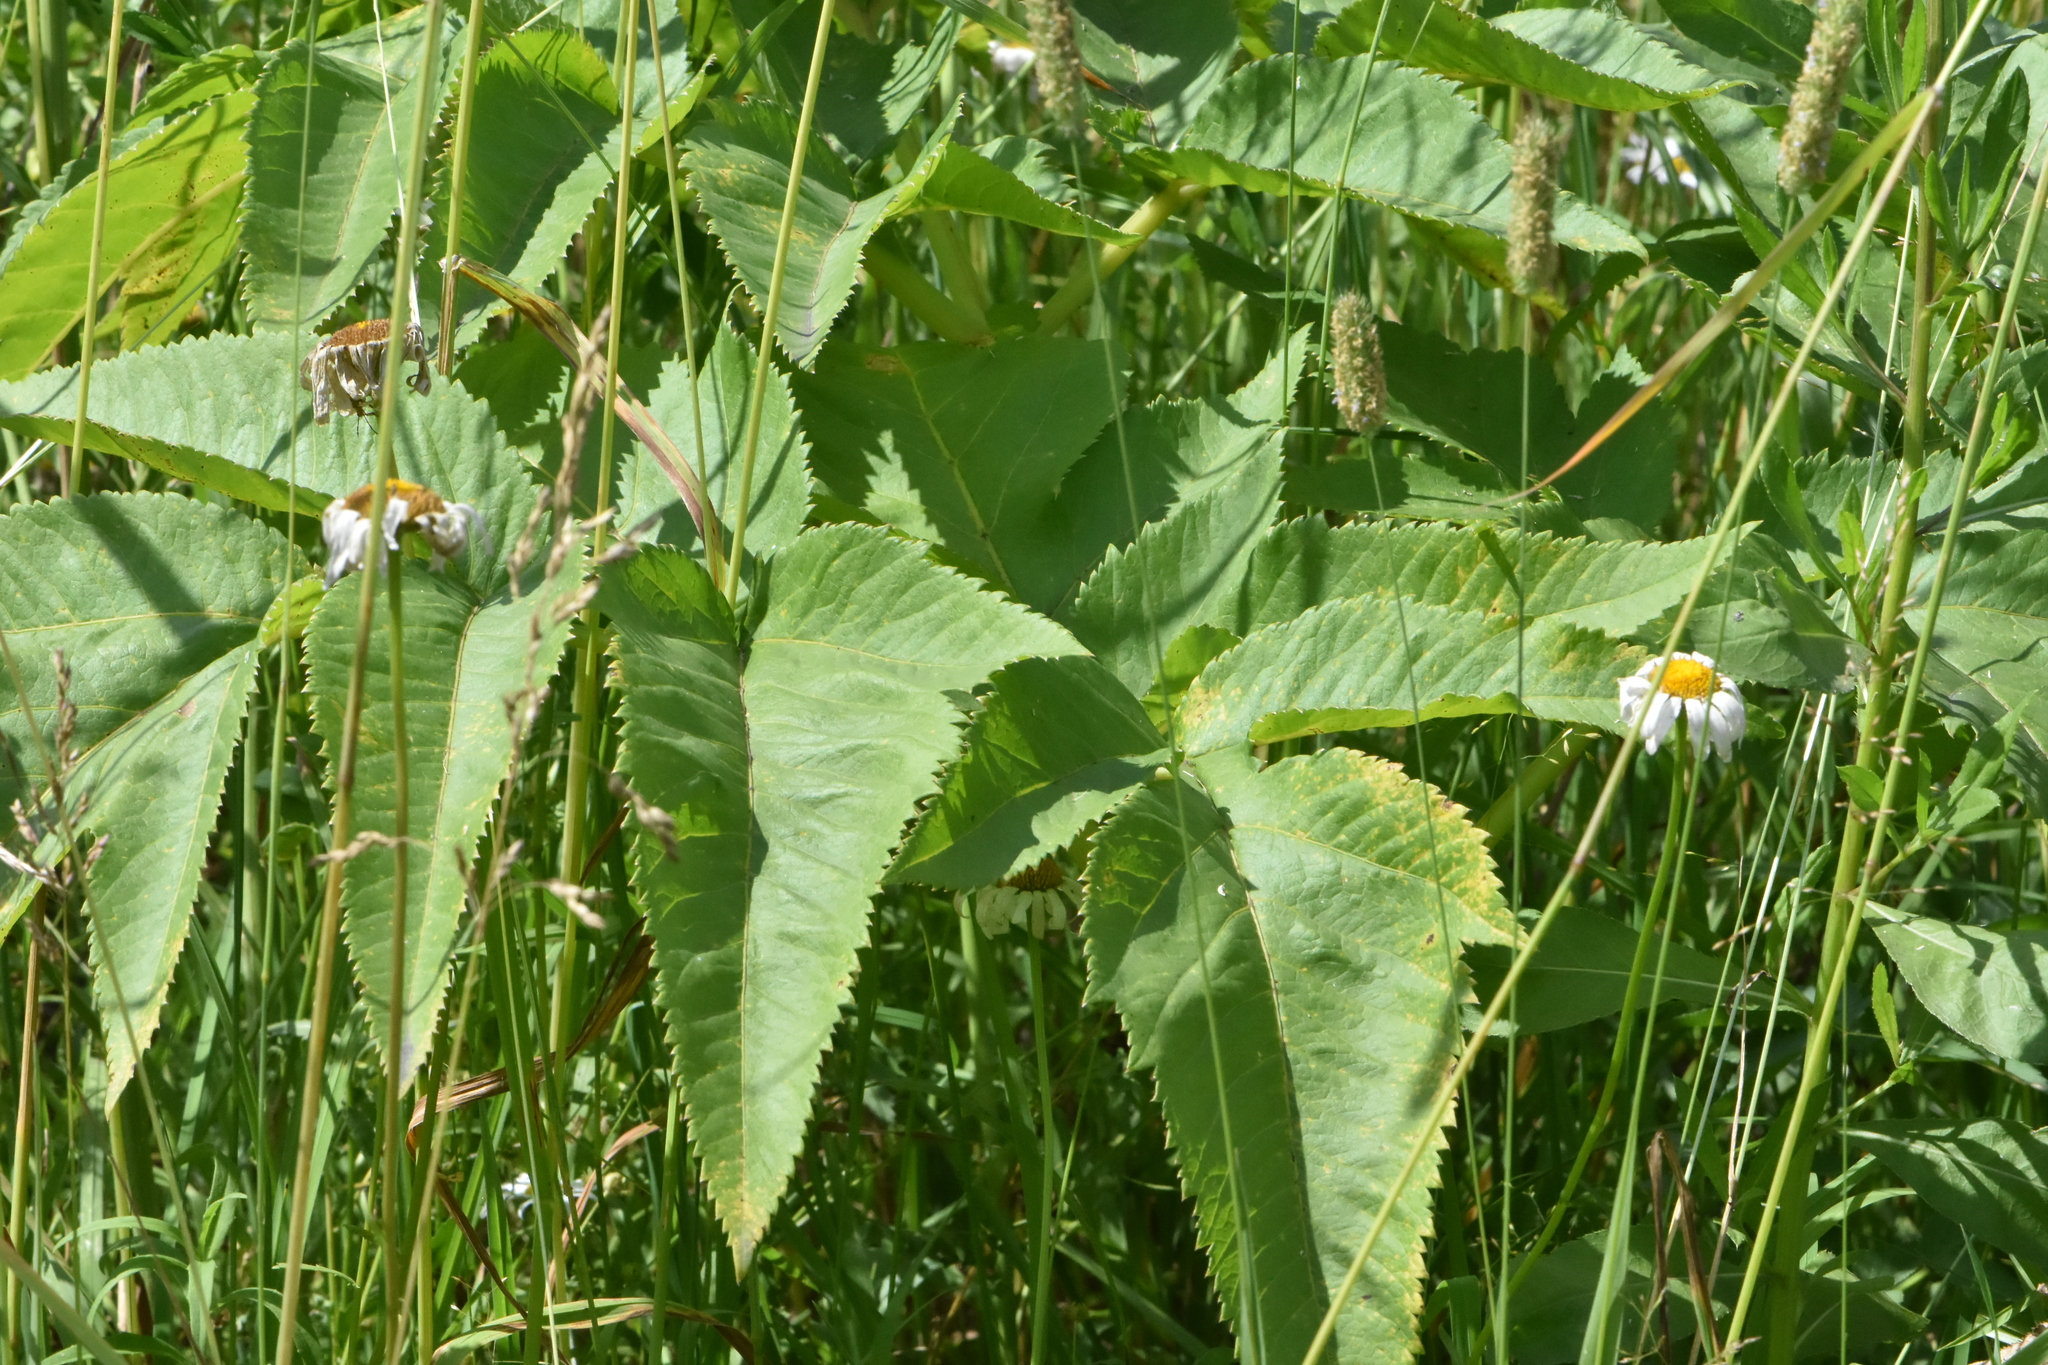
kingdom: Plantae
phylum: Tracheophyta
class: Magnoliopsida
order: Apiales
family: Apiaceae
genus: Angelica
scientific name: Angelica decurrens
